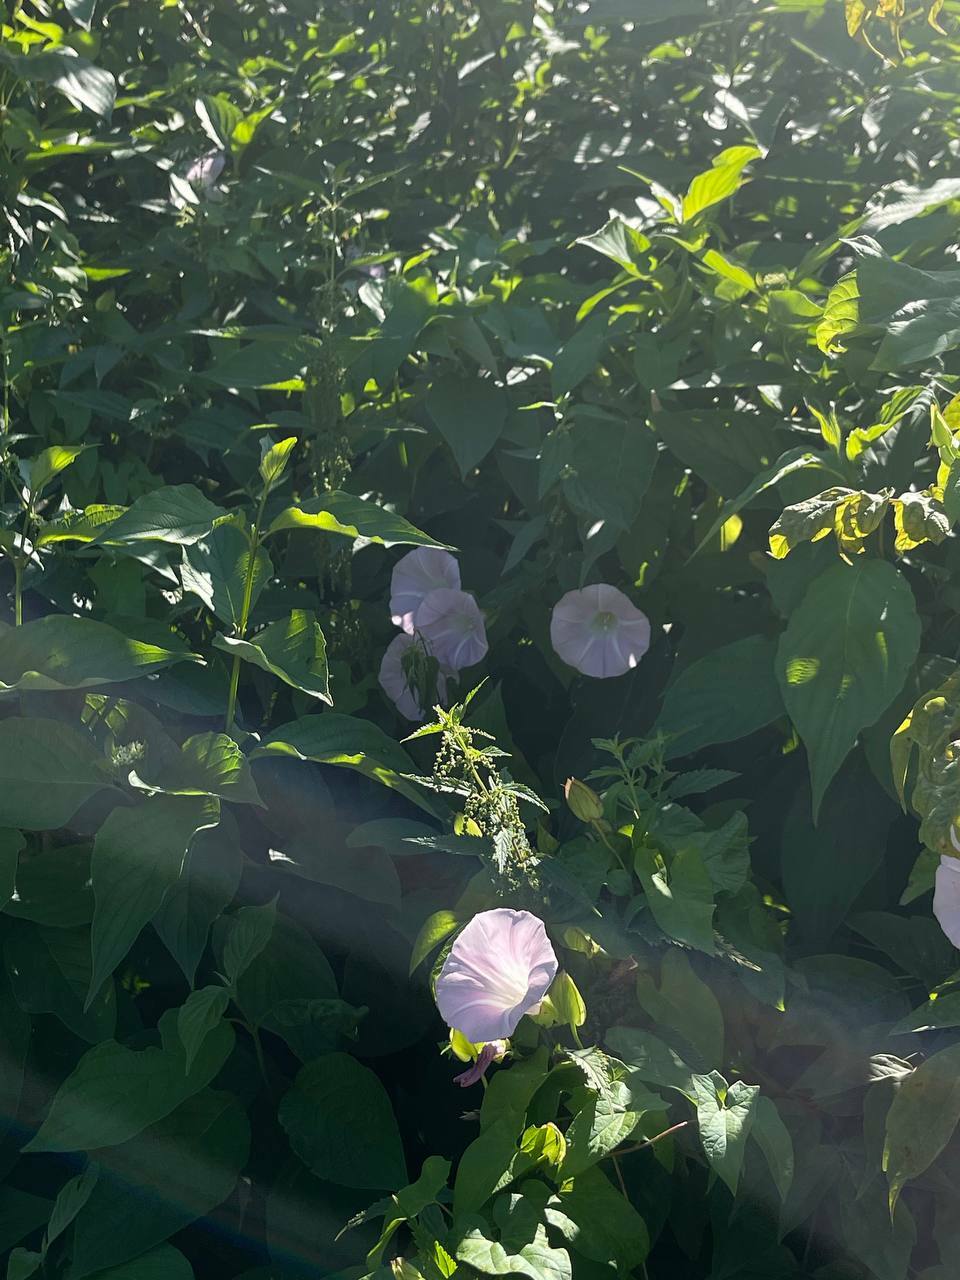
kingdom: Plantae
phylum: Tracheophyta
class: Magnoliopsida
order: Solanales
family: Convolvulaceae
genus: Calystegia
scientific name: Calystegia sepium
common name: Hedge bindweed
